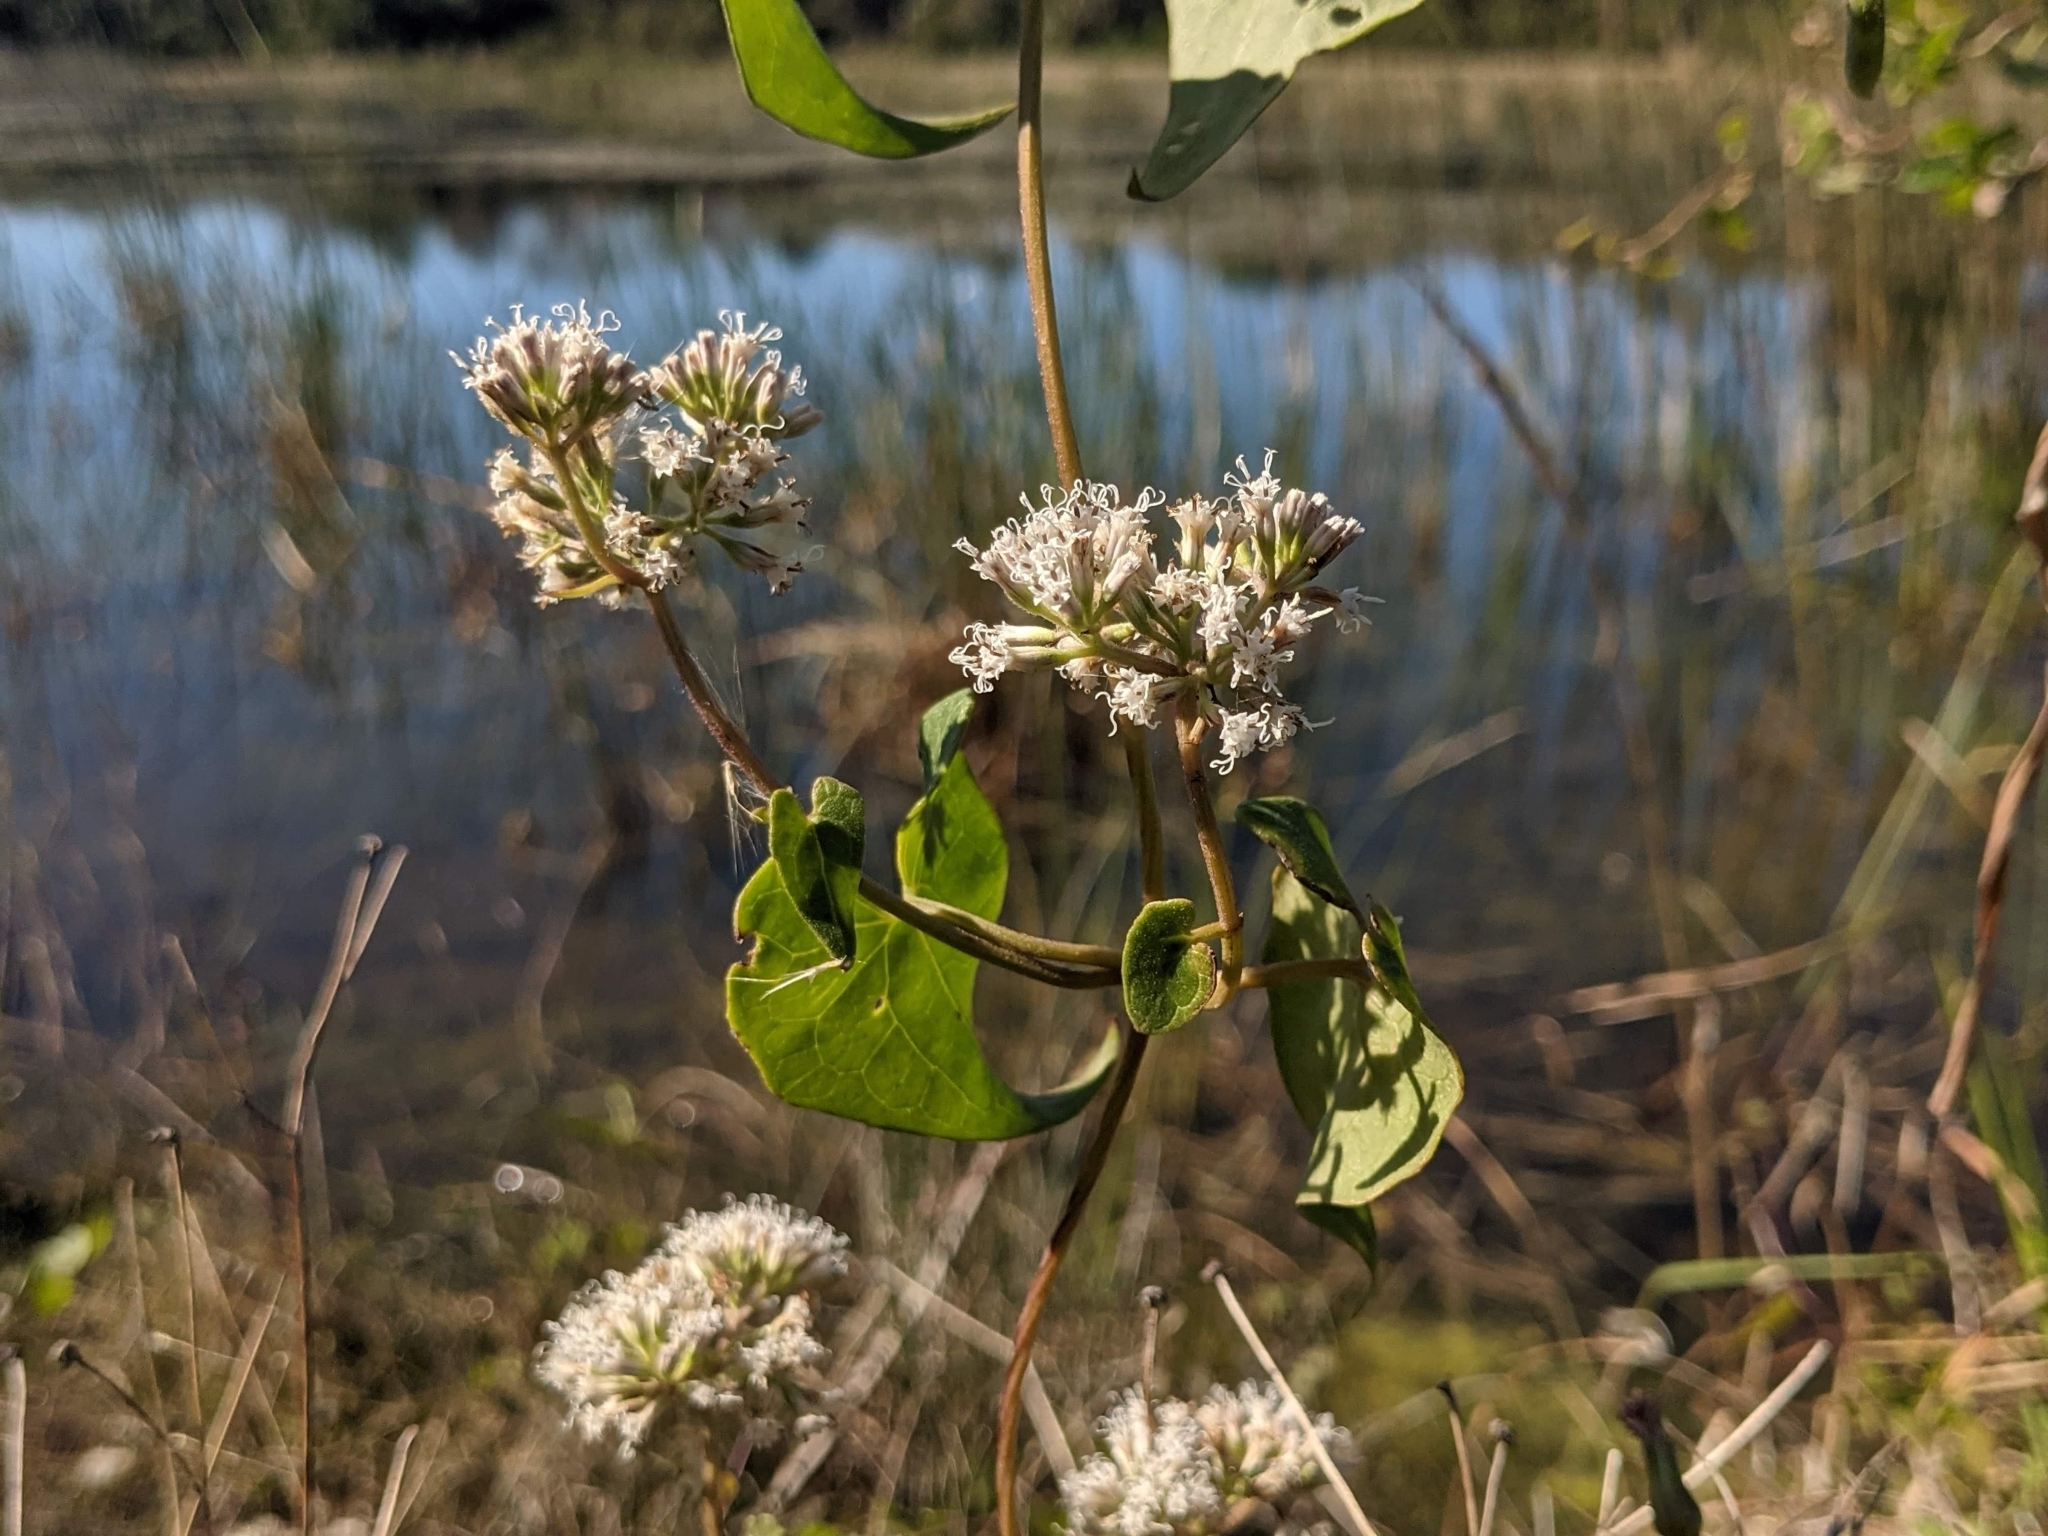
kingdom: Plantae
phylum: Tracheophyta
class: Magnoliopsida
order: Asterales
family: Asteraceae
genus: Mikania
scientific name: Mikania scandens
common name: Climbing hempvine
